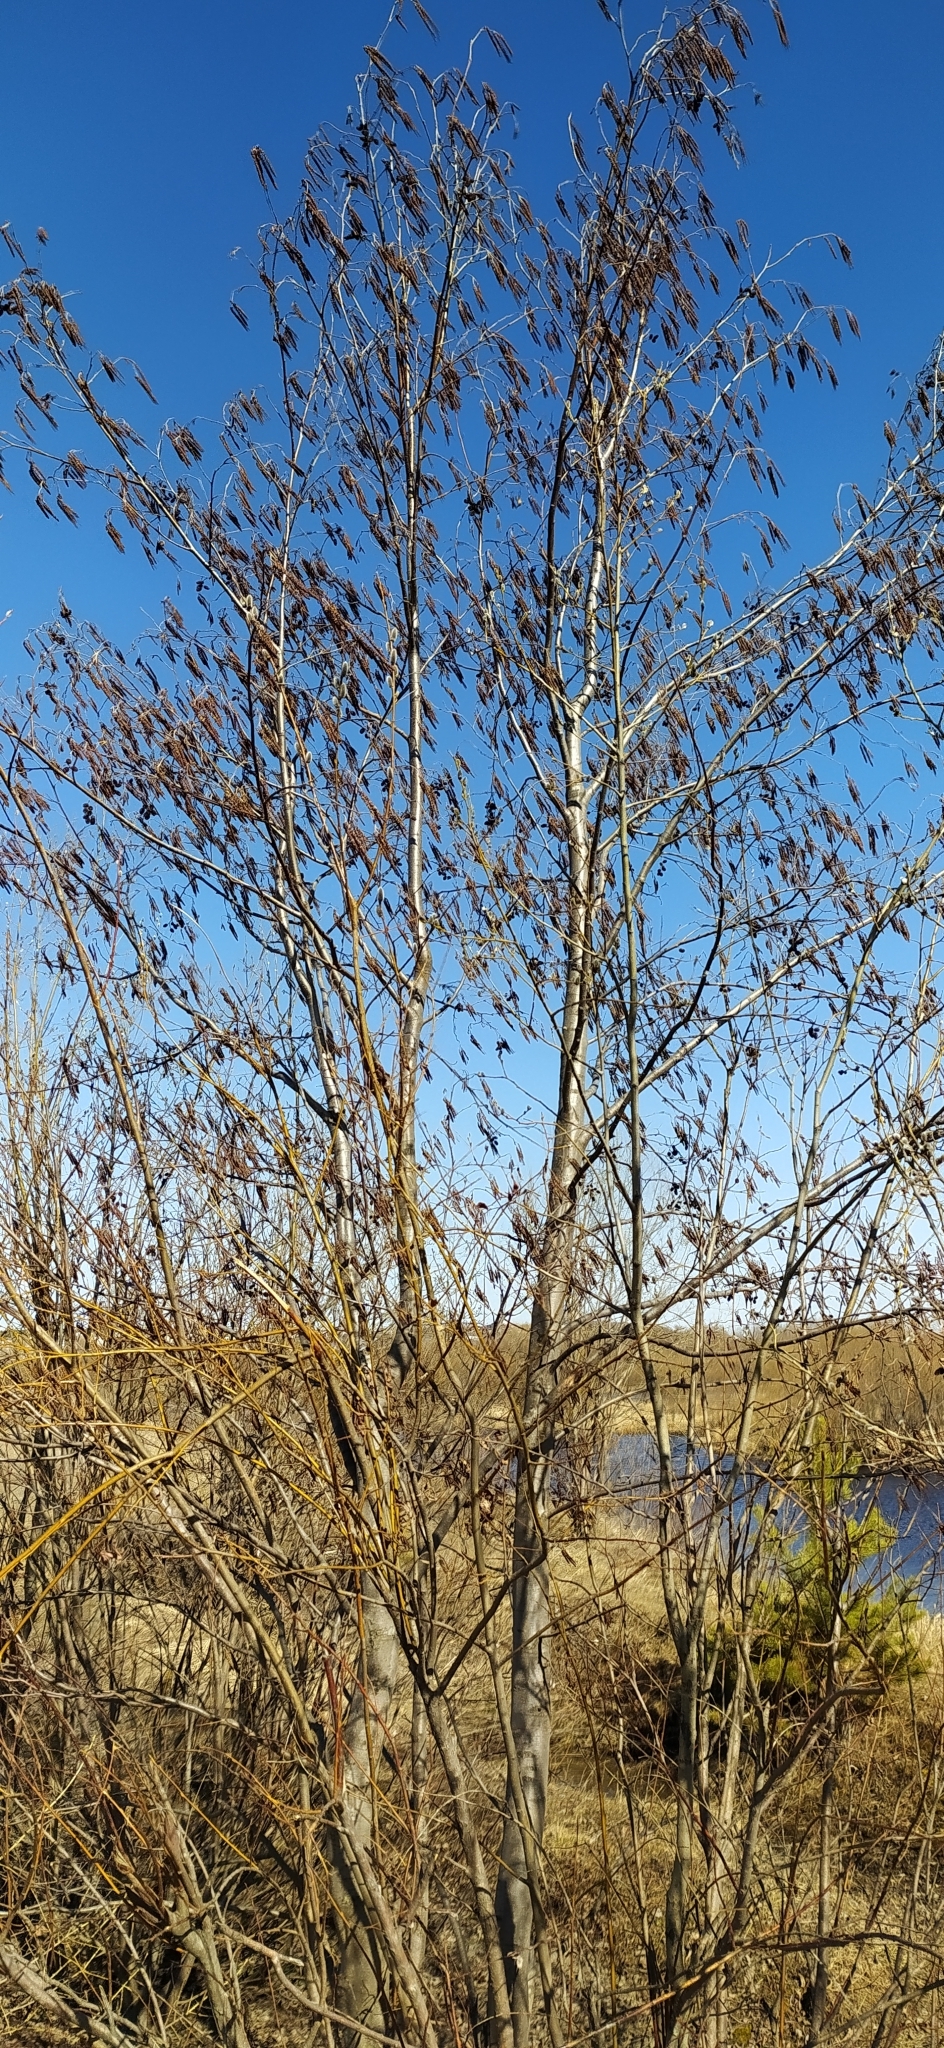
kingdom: Plantae
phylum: Tracheophyta
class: Magnoliopsida
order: Fagales
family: Betulaceae
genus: Alnus
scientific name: Alnus incana
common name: Grey alder
